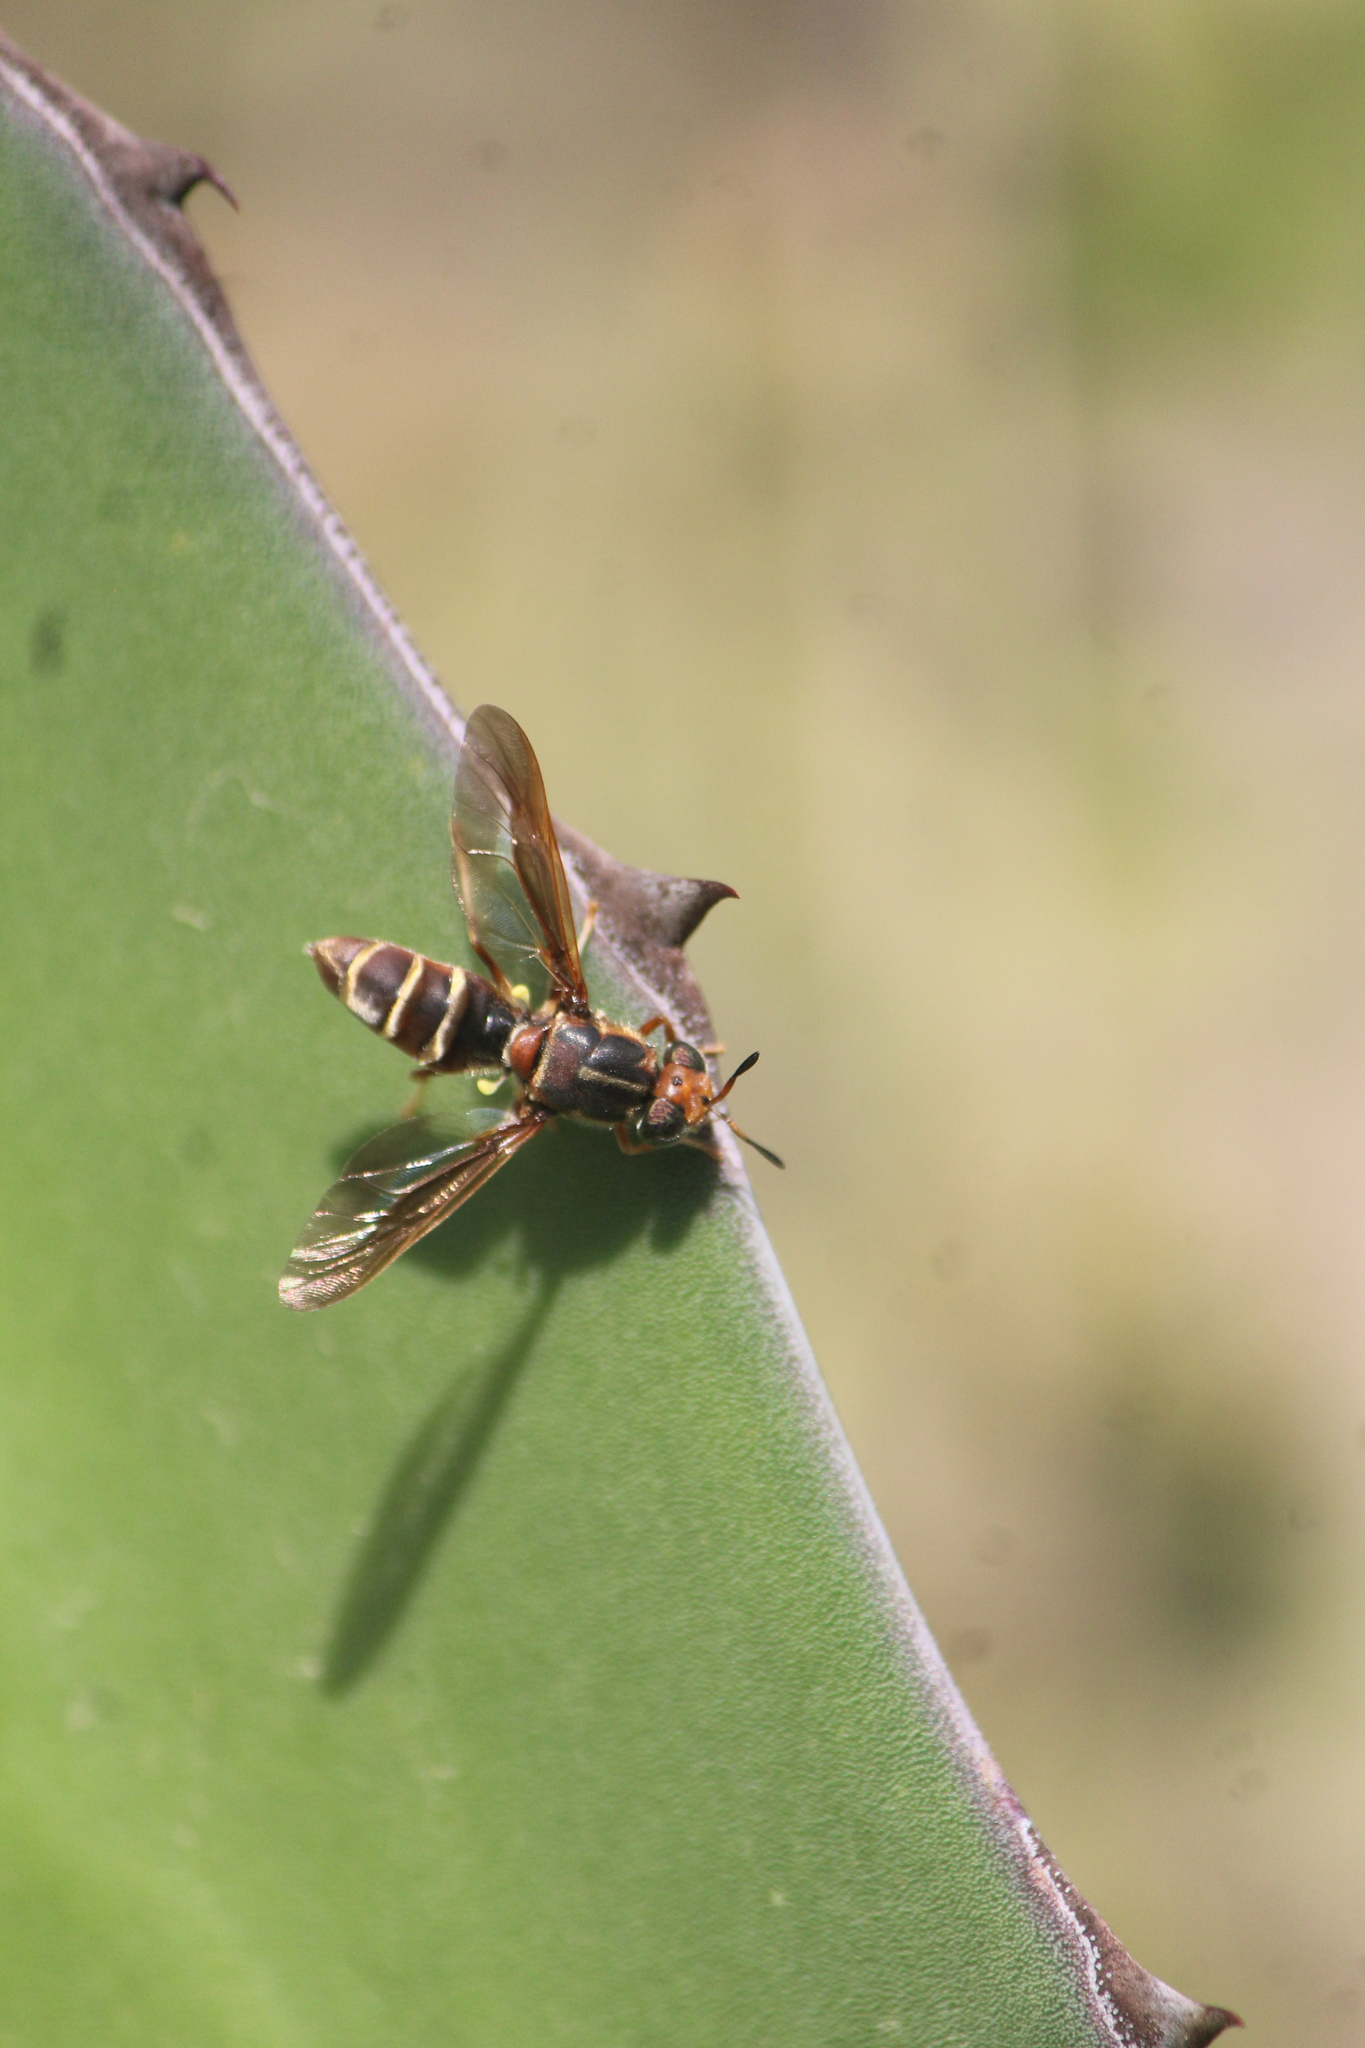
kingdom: Animalia
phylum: Arthropoda
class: Insecta
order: Diptera
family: Stratiomyidae
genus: Hermetia
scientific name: Hermetia comstocki
